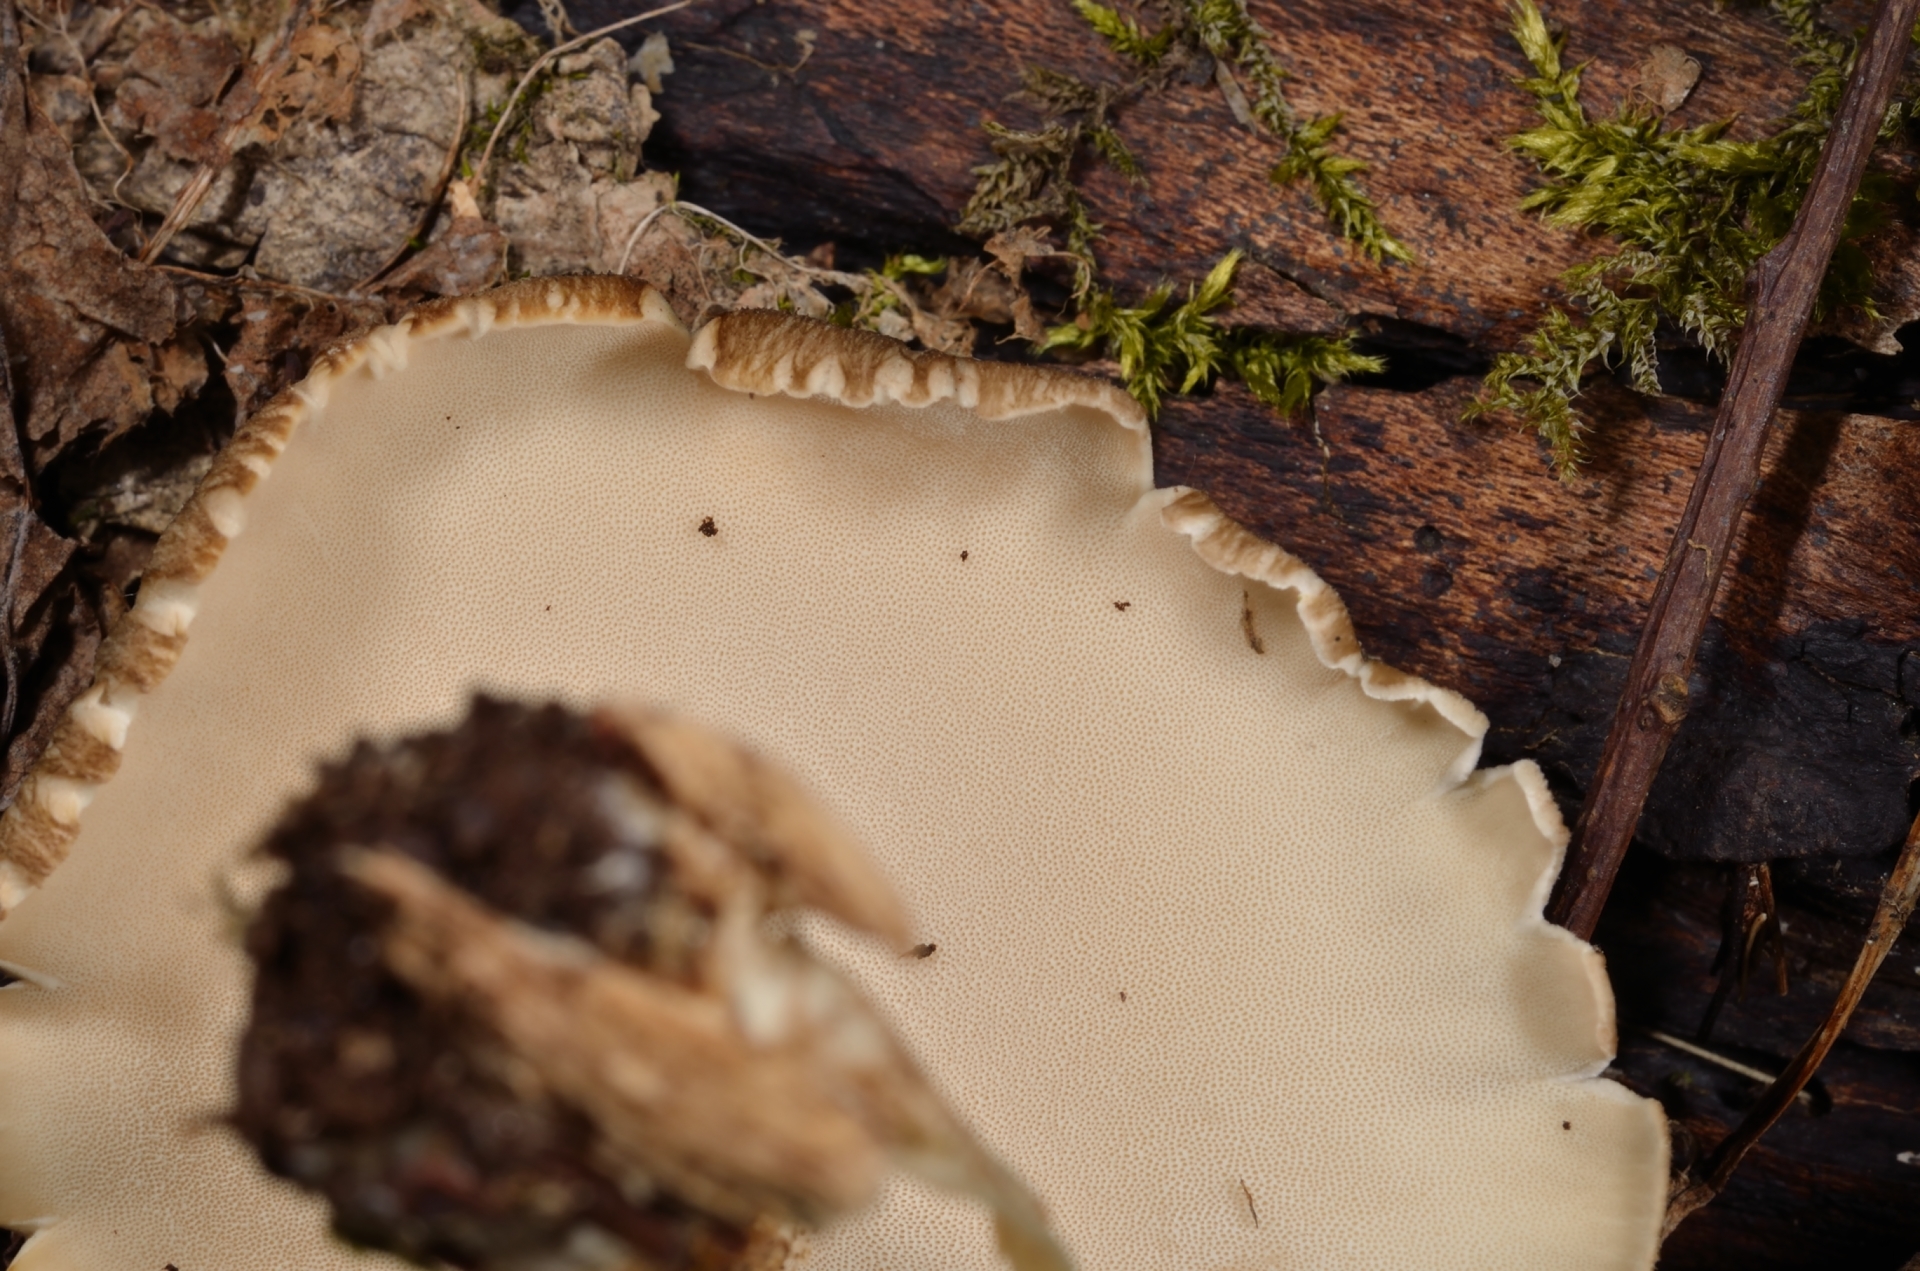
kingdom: Fungi
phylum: Basidiomycota
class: Agaricomycetes
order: Polyporales
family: Polyporaceae
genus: Lentinus
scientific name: Lentinus substrictus
